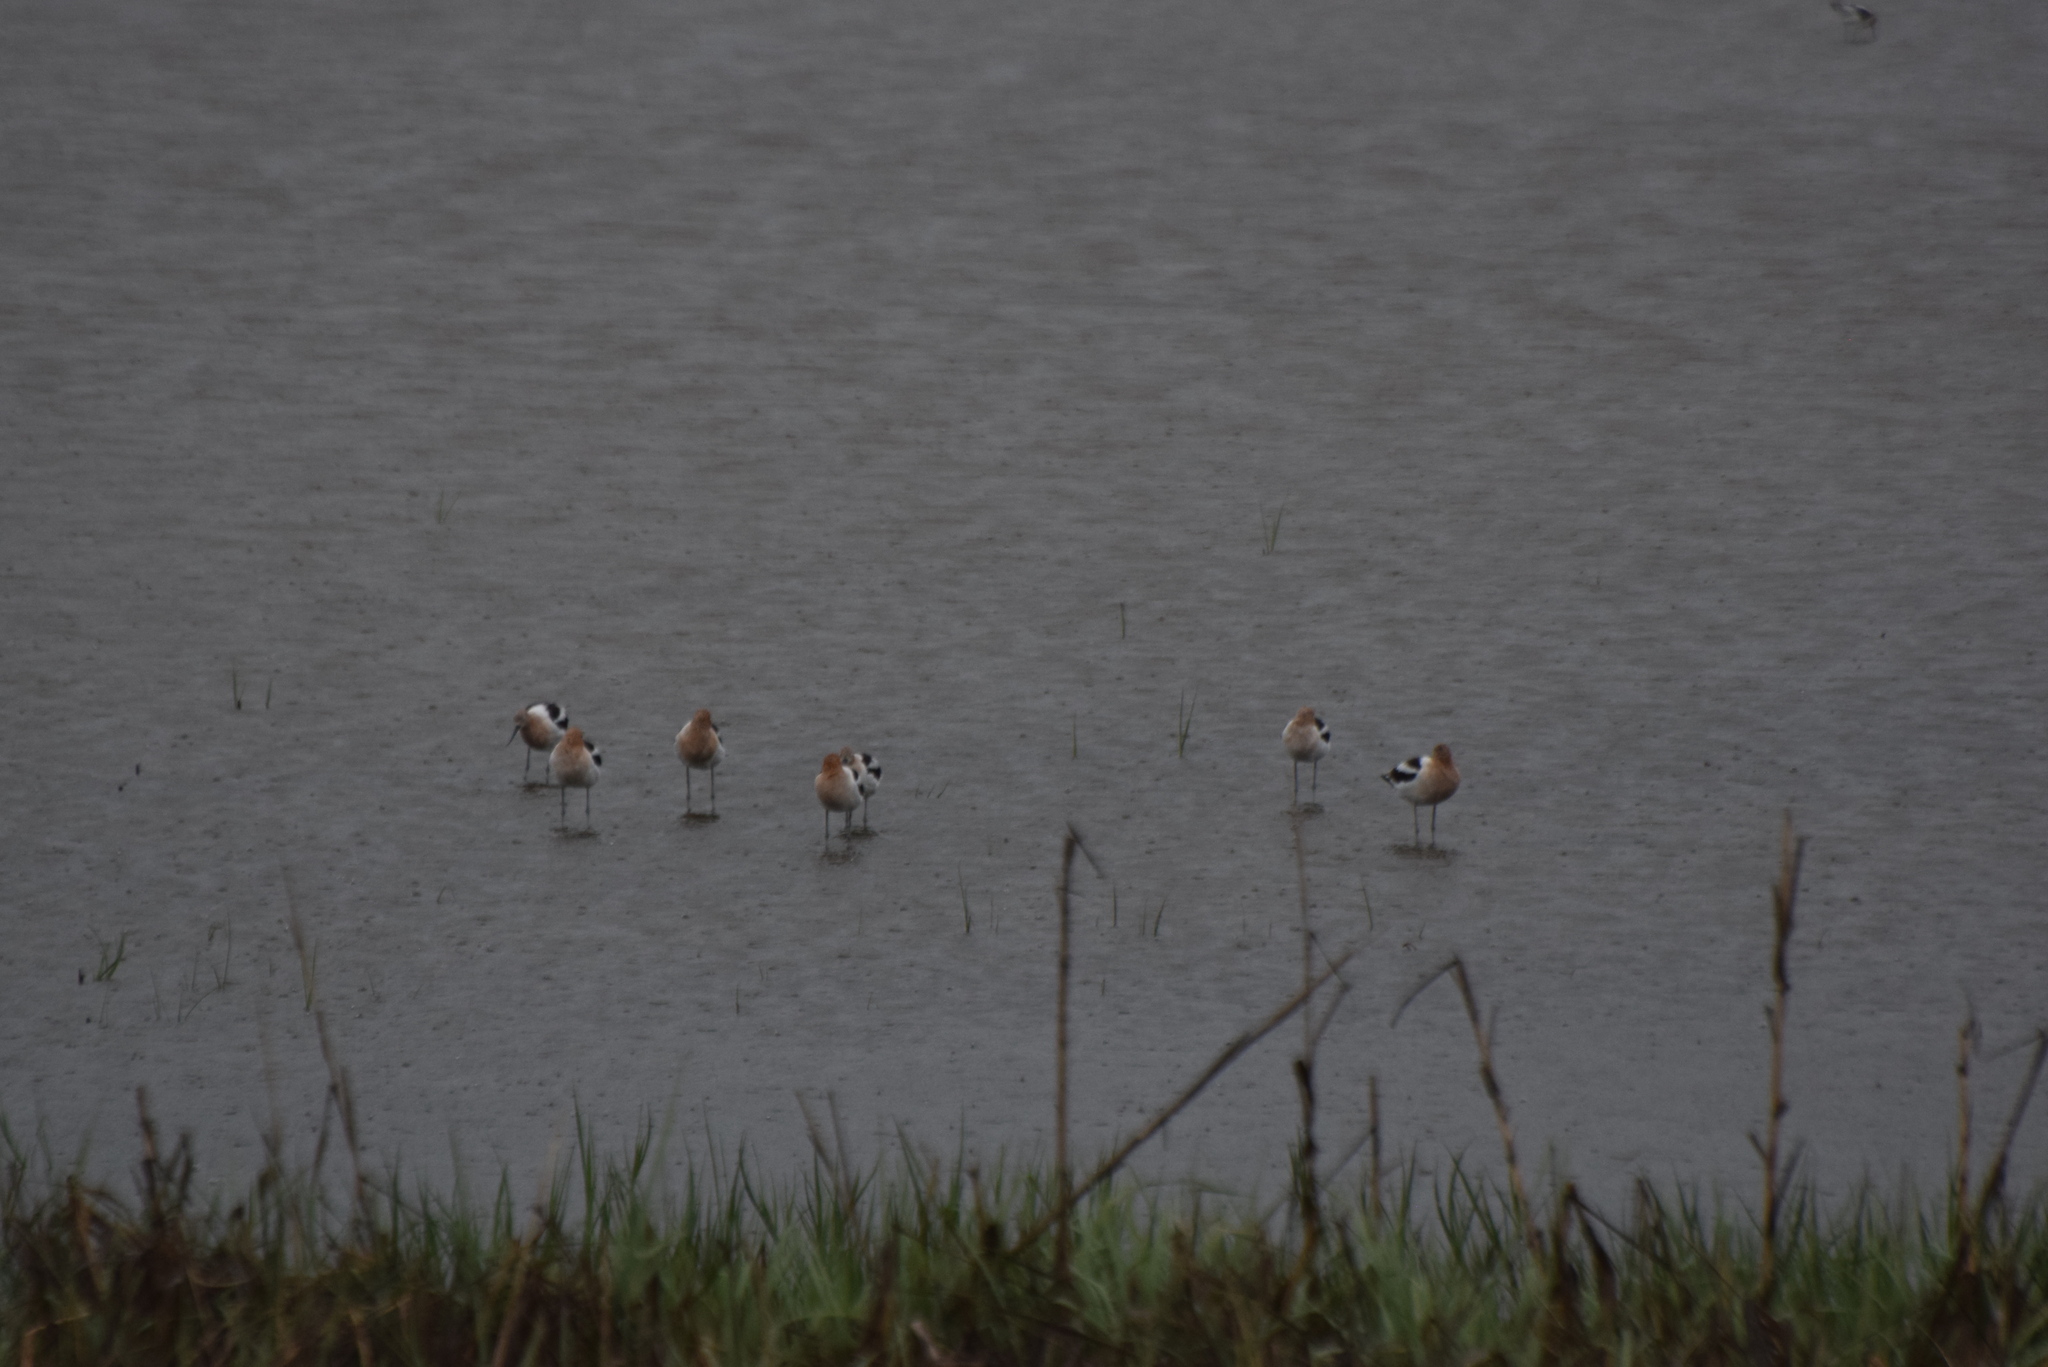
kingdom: Animalia
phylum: Chordata
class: Aves
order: Charadriiformes
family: Recurvirostridae
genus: Recurvirostra
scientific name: Recurvirostra americana
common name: American avocet
